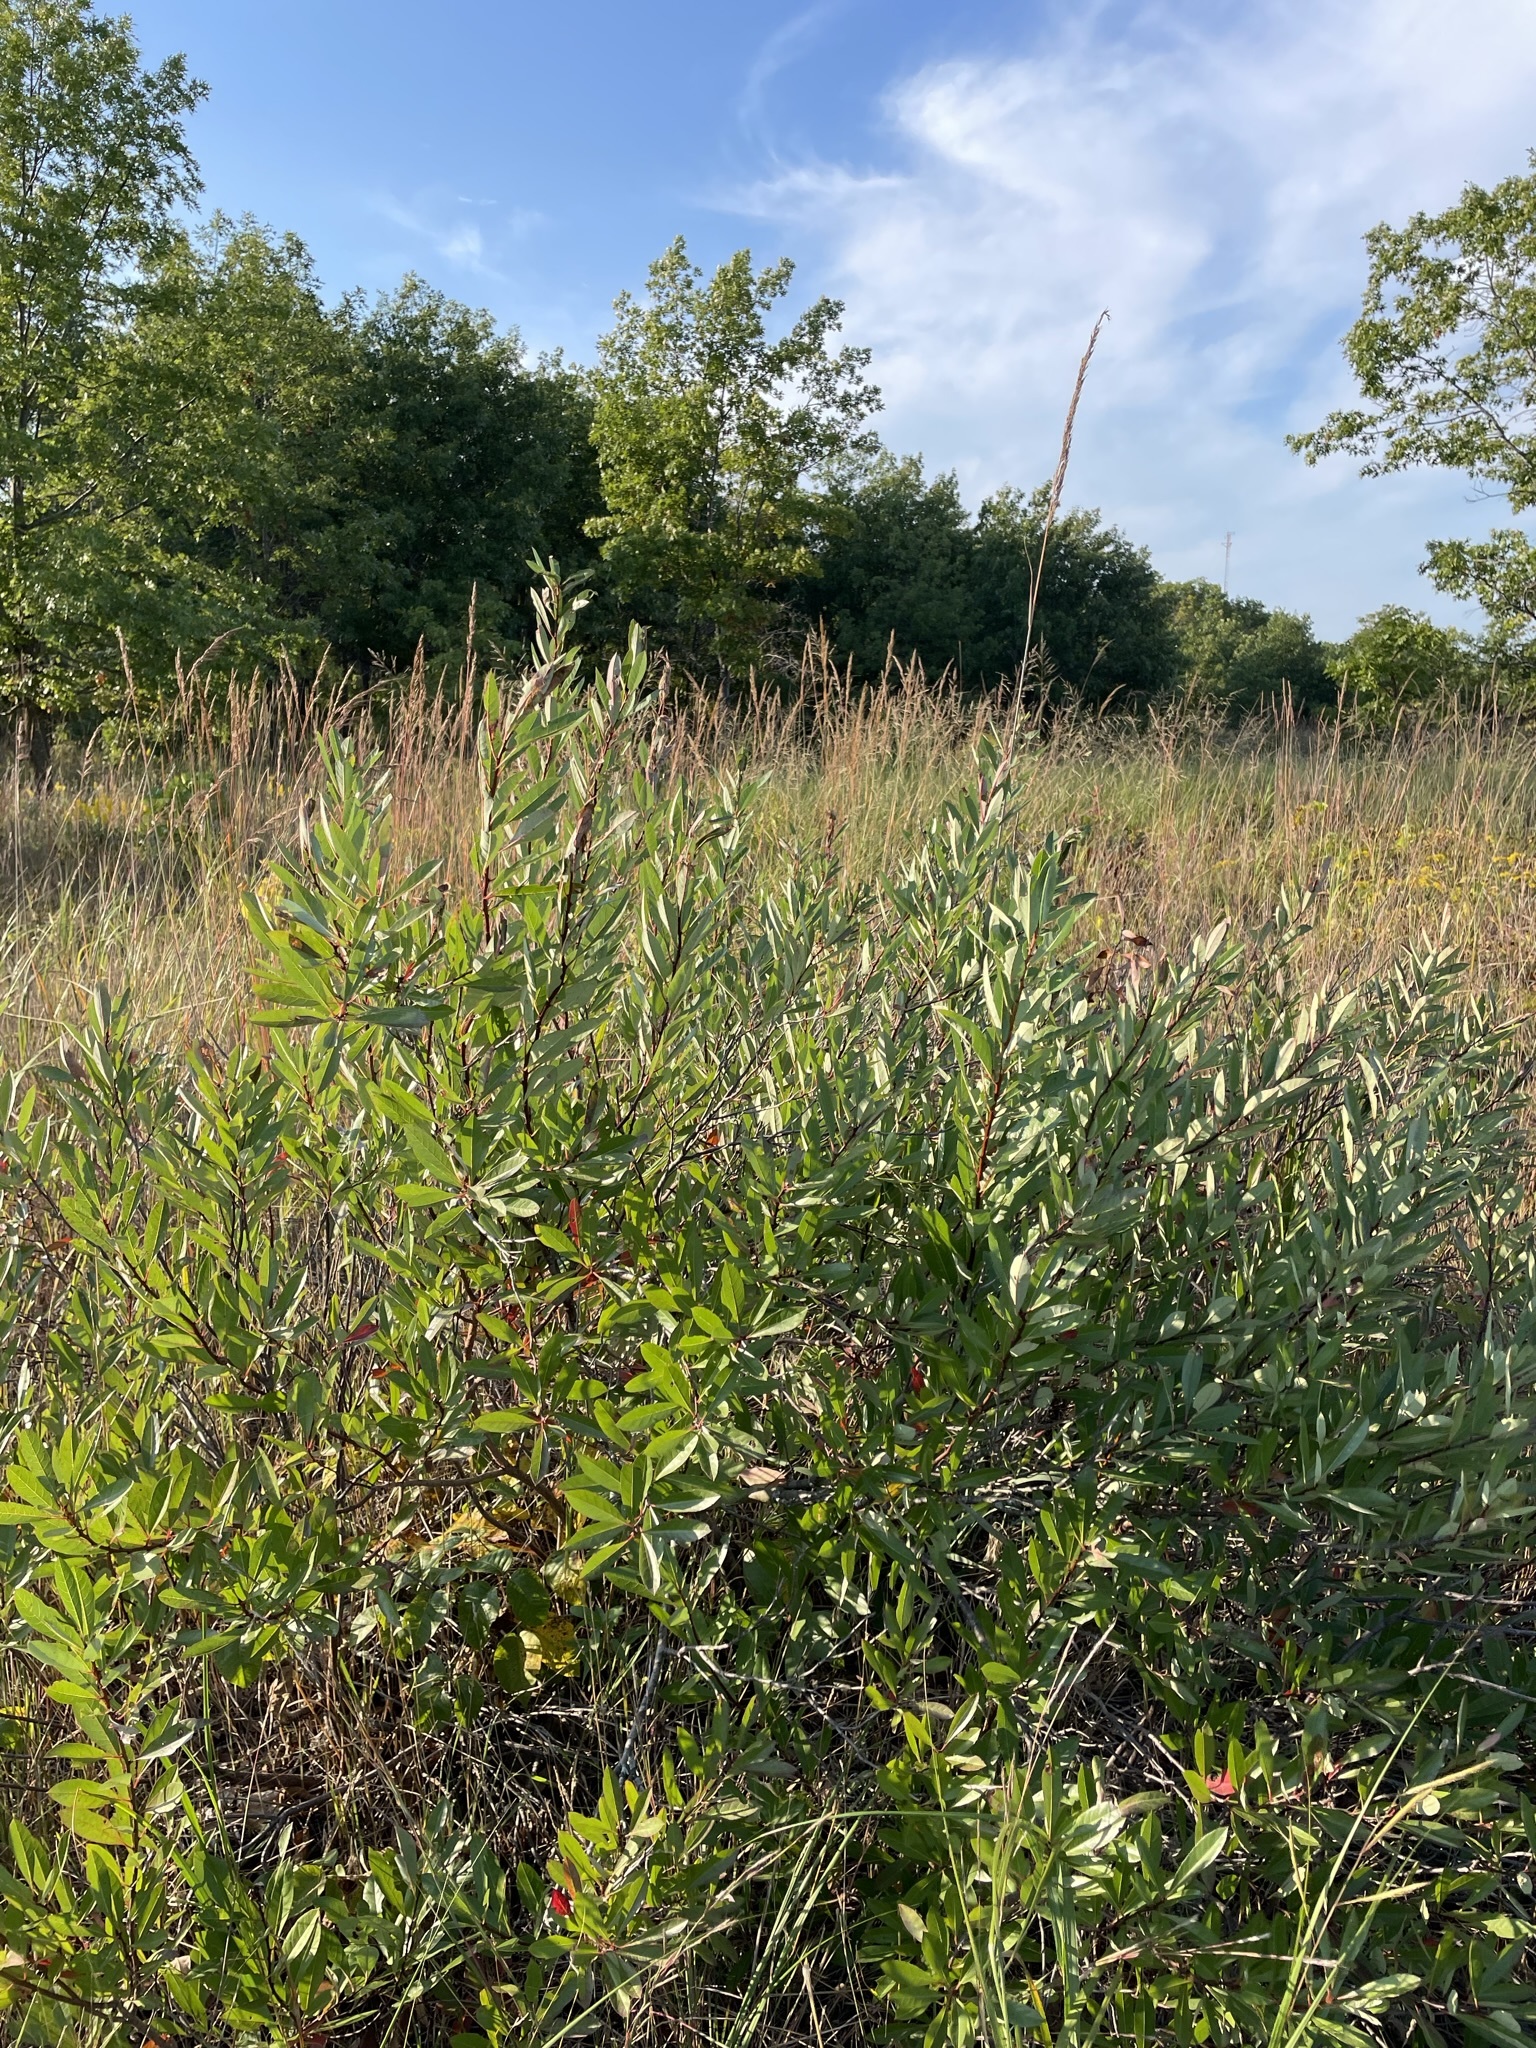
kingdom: Plantae
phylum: Tracheophyta
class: Magnoliopsida
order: Rosales
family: Rosaceae
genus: Prunus
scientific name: Prunus pumila
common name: Dwarf cherry
